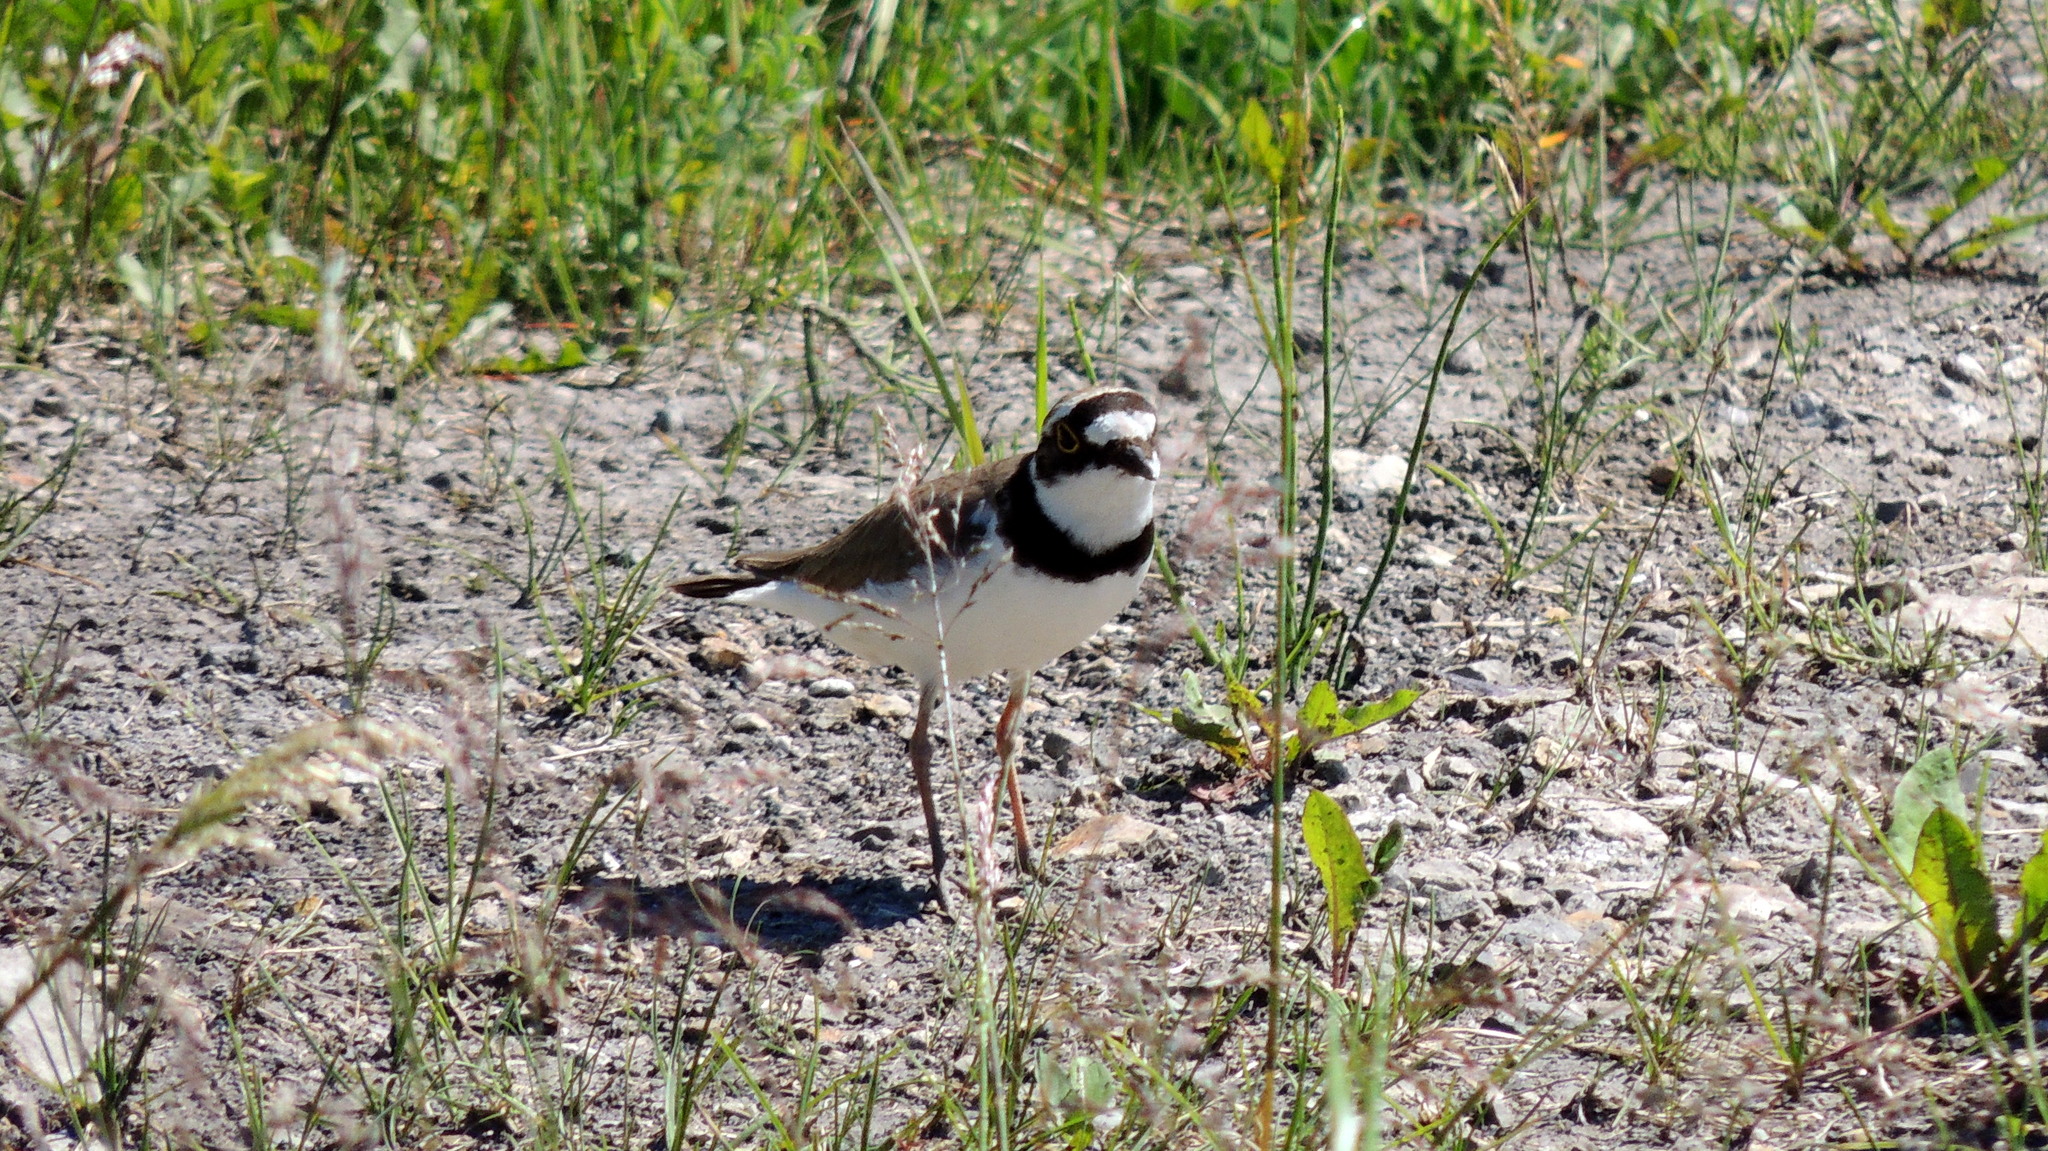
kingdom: Animalia
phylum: Chordata
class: Aves
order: Charadriiformes
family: Charadriidae
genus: Charadrius
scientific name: Charadrius dubius
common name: Little ringed plover
